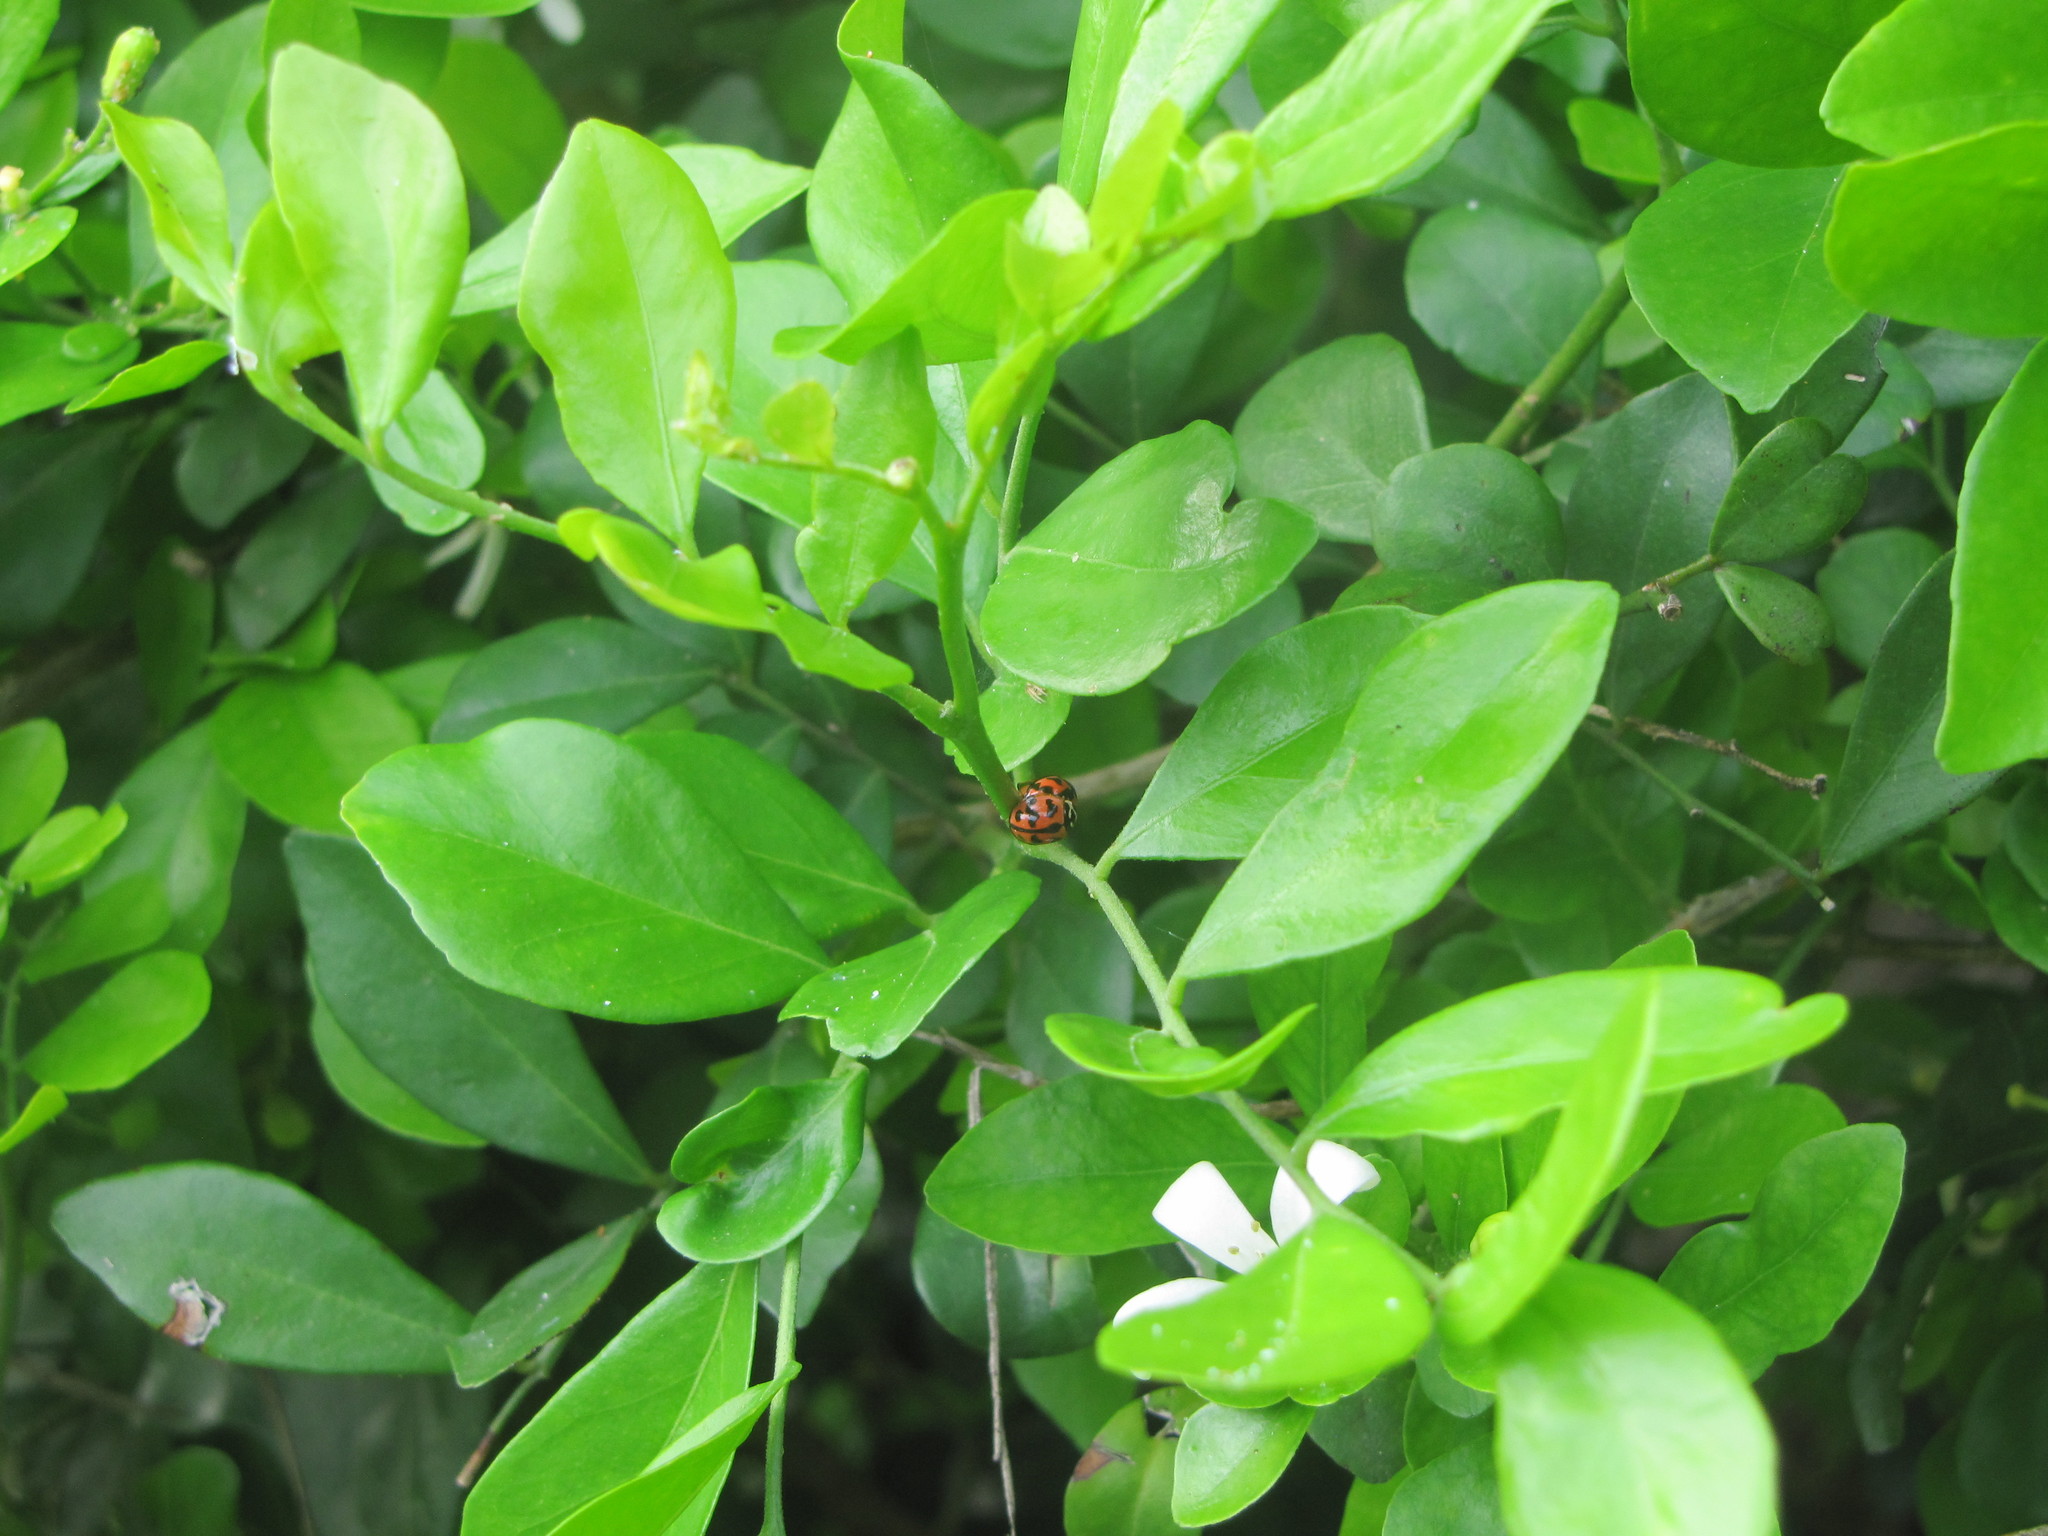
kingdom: Animalia
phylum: Arthropoda
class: Insecta
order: Coleoptera
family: Coccinellidae
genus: Cheilomenes
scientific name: Cheilomenes sexmaculata
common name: Ladybird beetle
